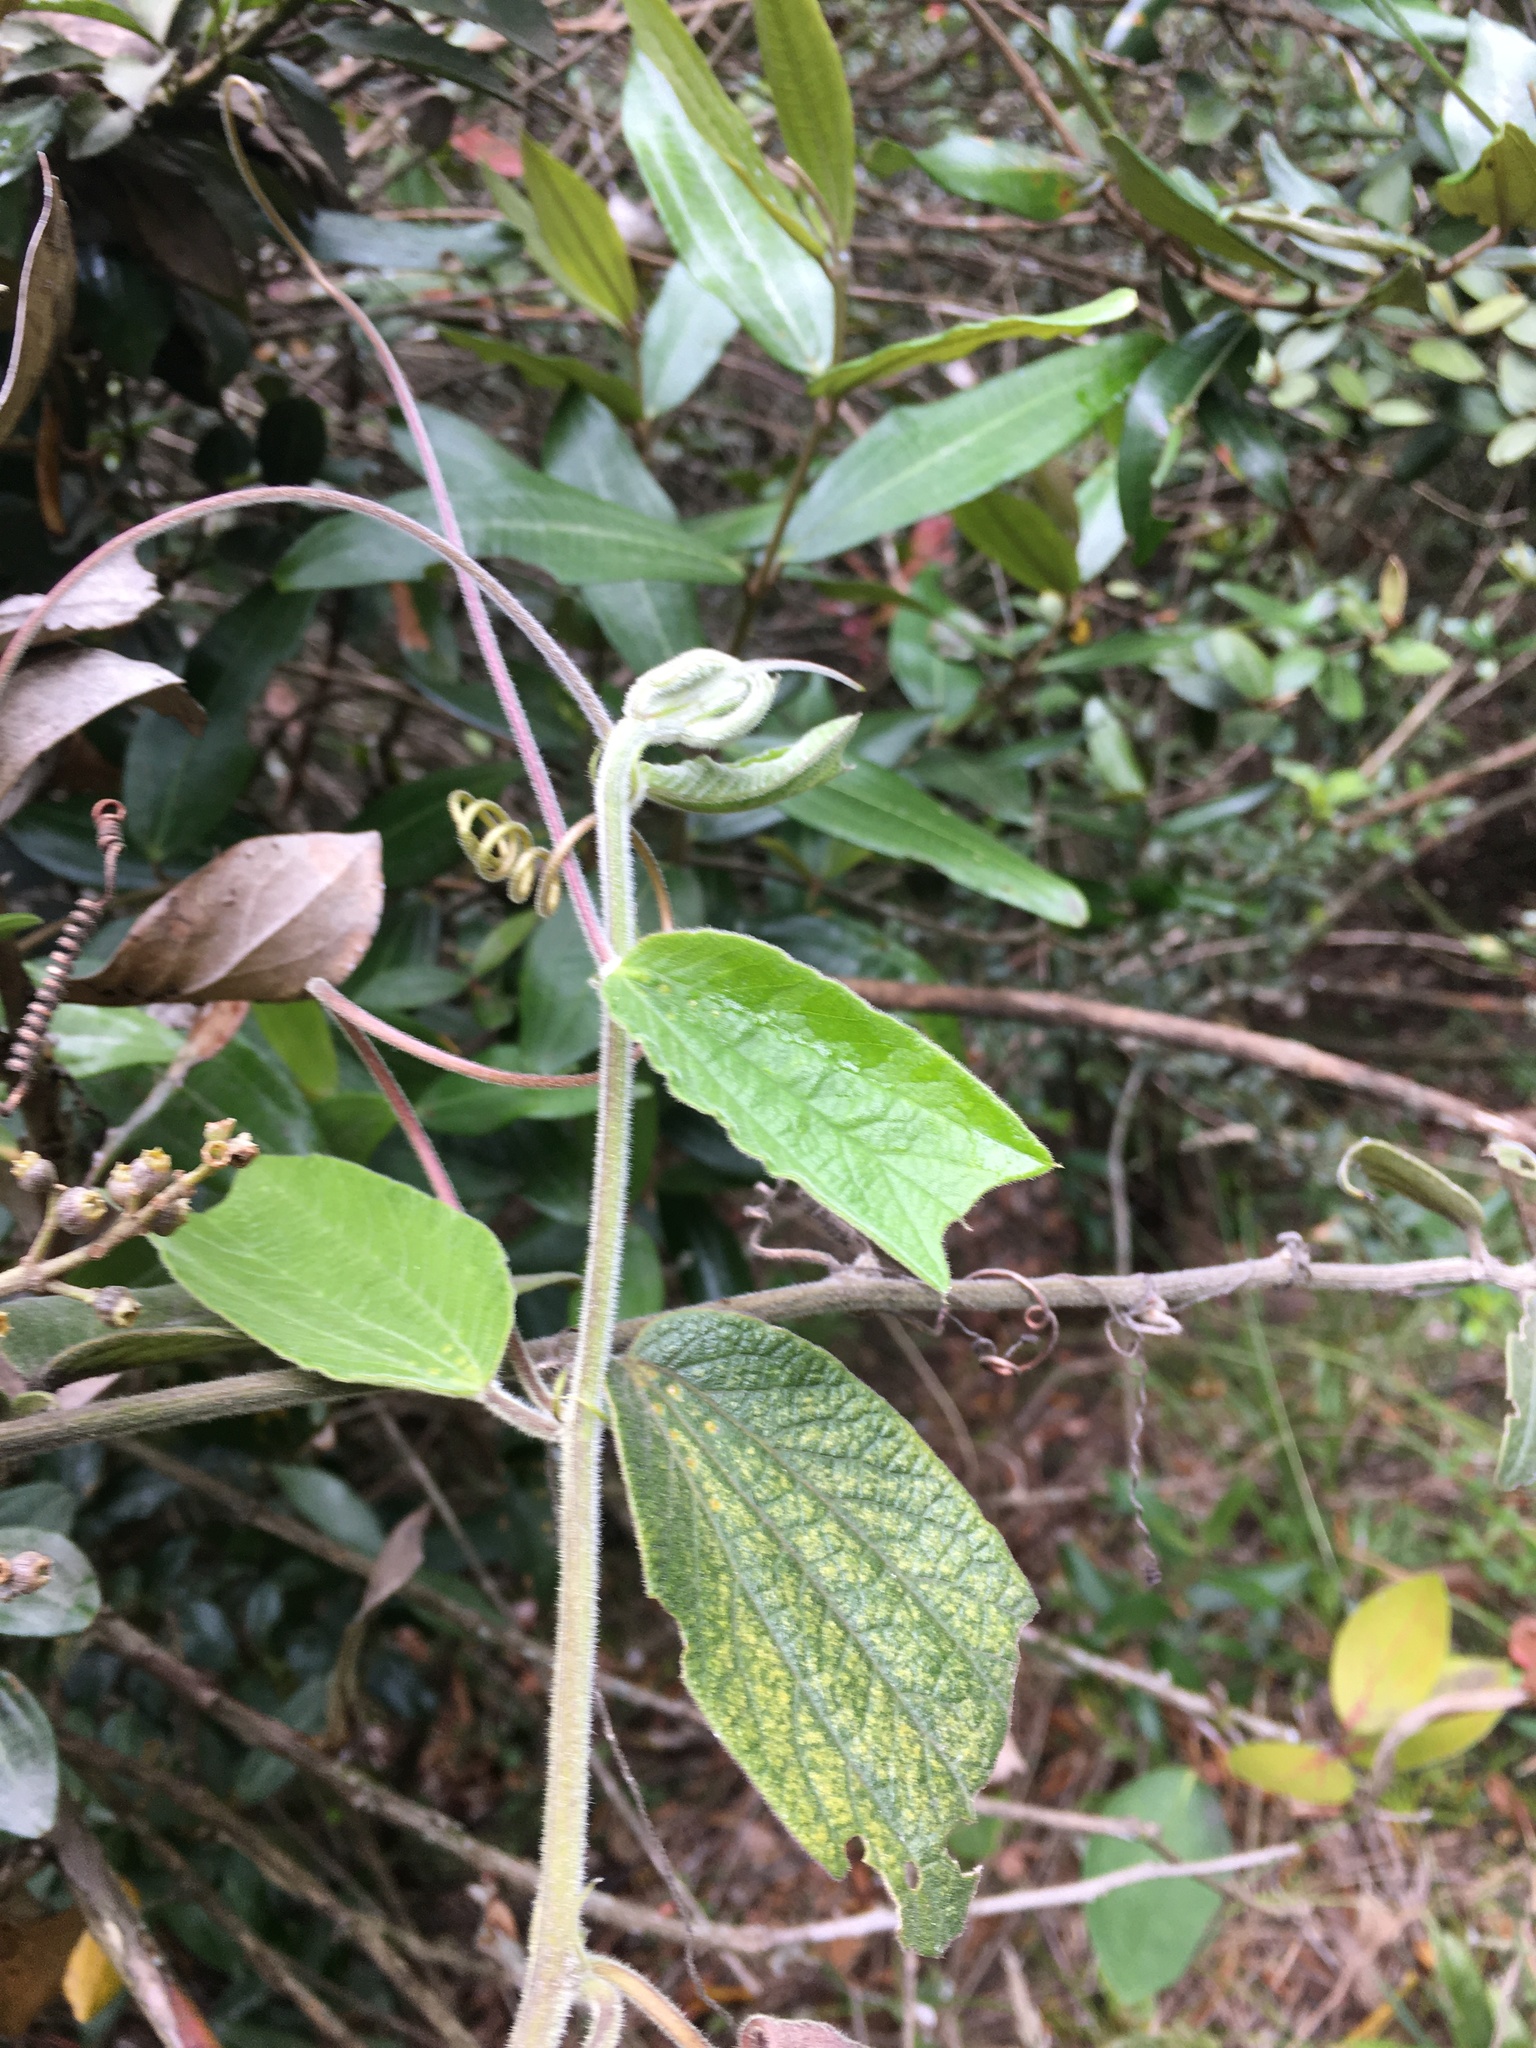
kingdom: Plantae
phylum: Tracheophyta
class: Magnoliopsida
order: Malpighiales
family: Passifloraceae
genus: Passiflora
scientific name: Passiflora bogotensis
